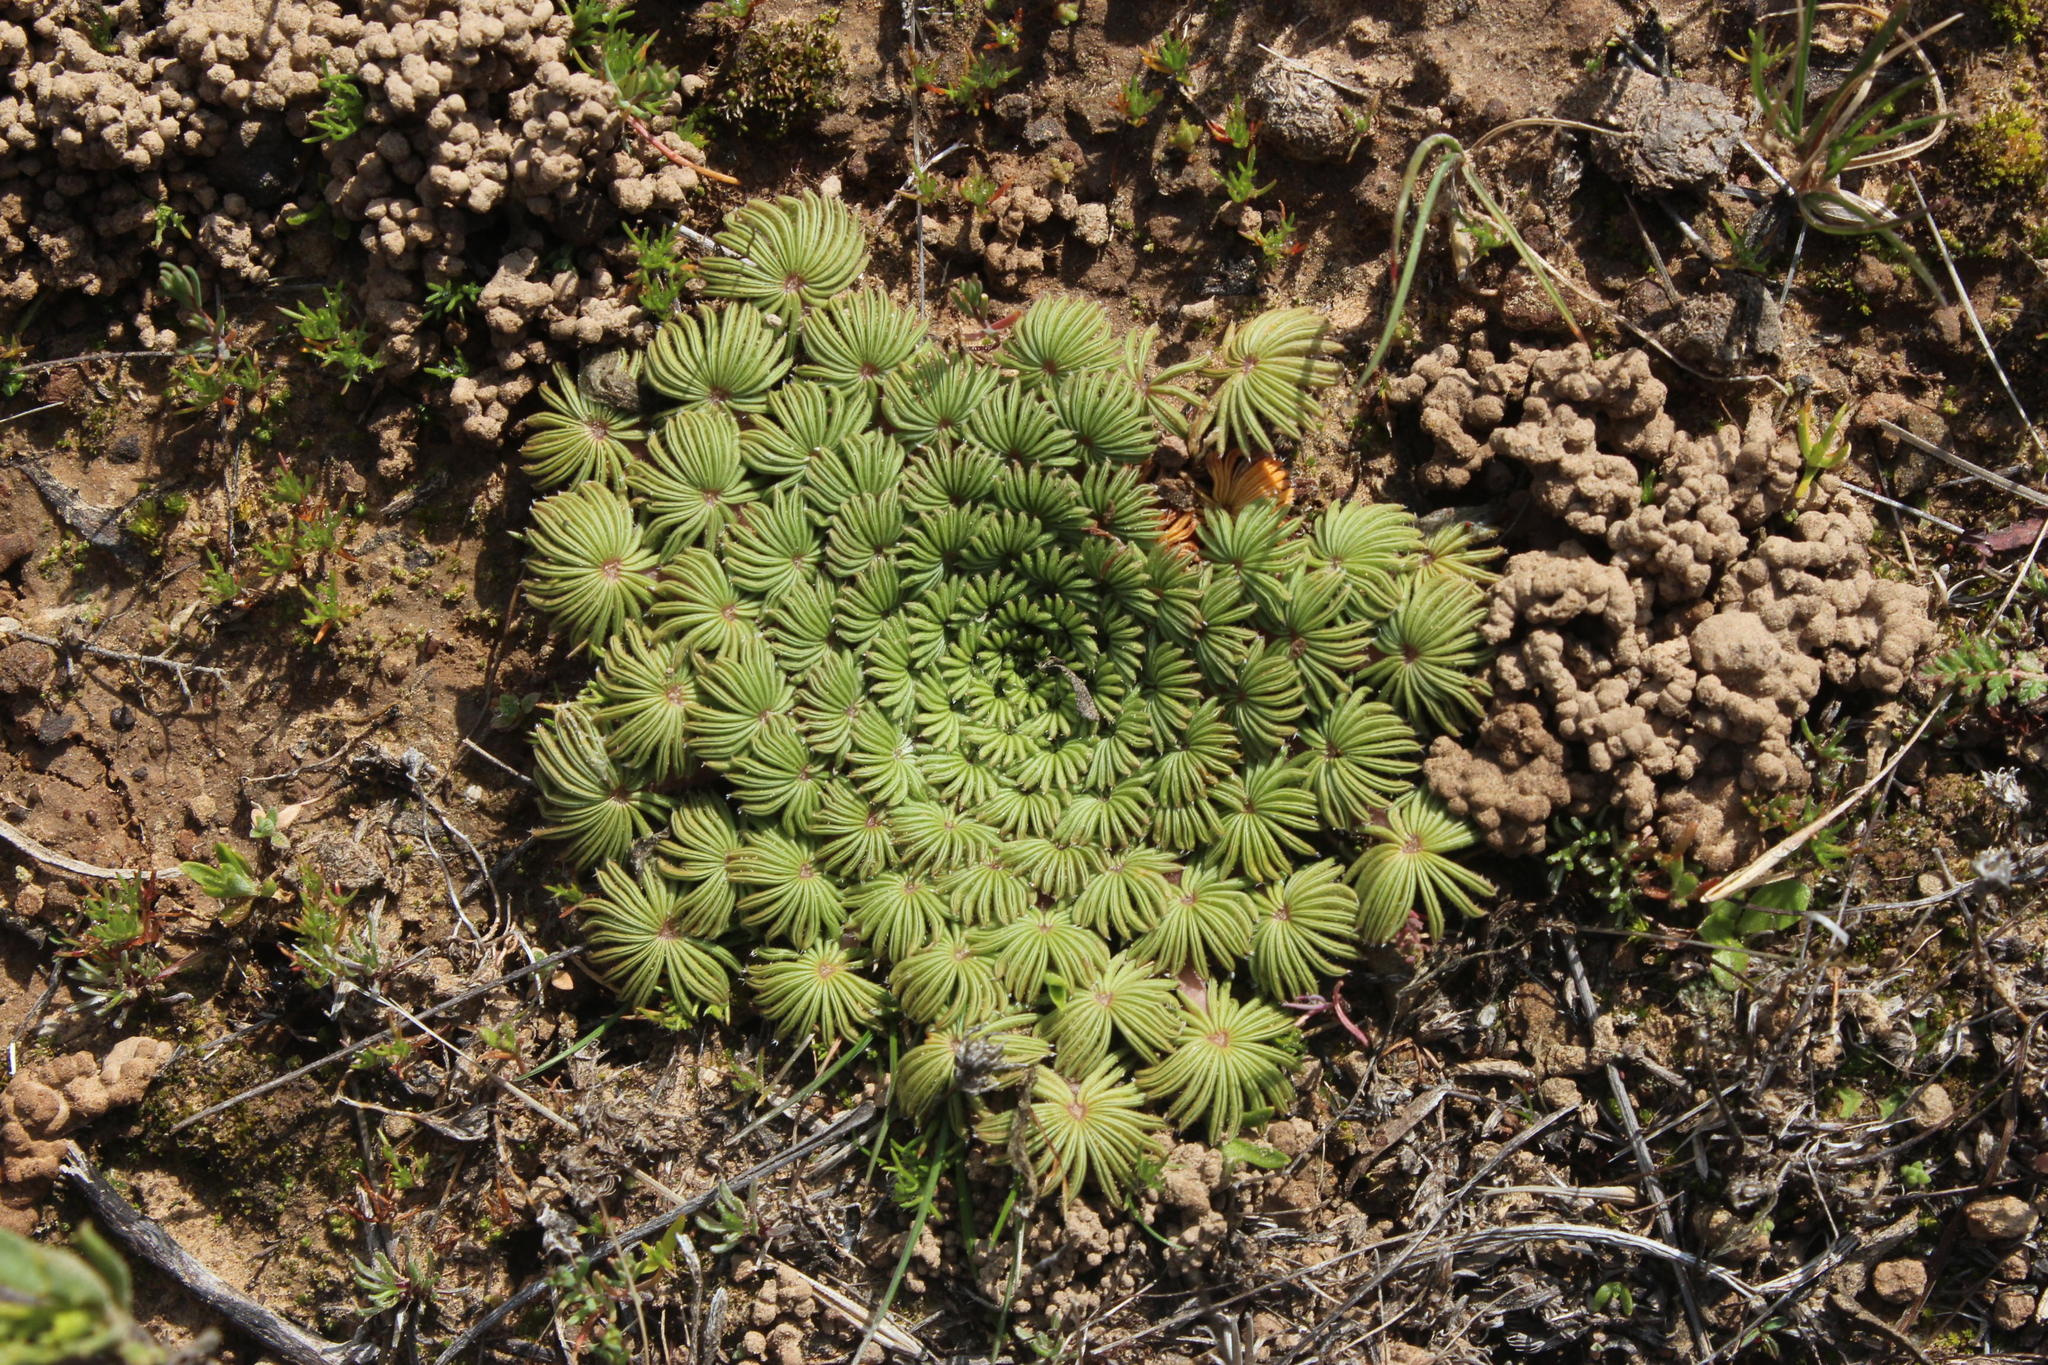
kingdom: Plantae
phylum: Tracheophyta
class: Magnoliopsida
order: Oxalidales
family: Oxalidaceae
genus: Oxalis
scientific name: Oxalis palmifrons
